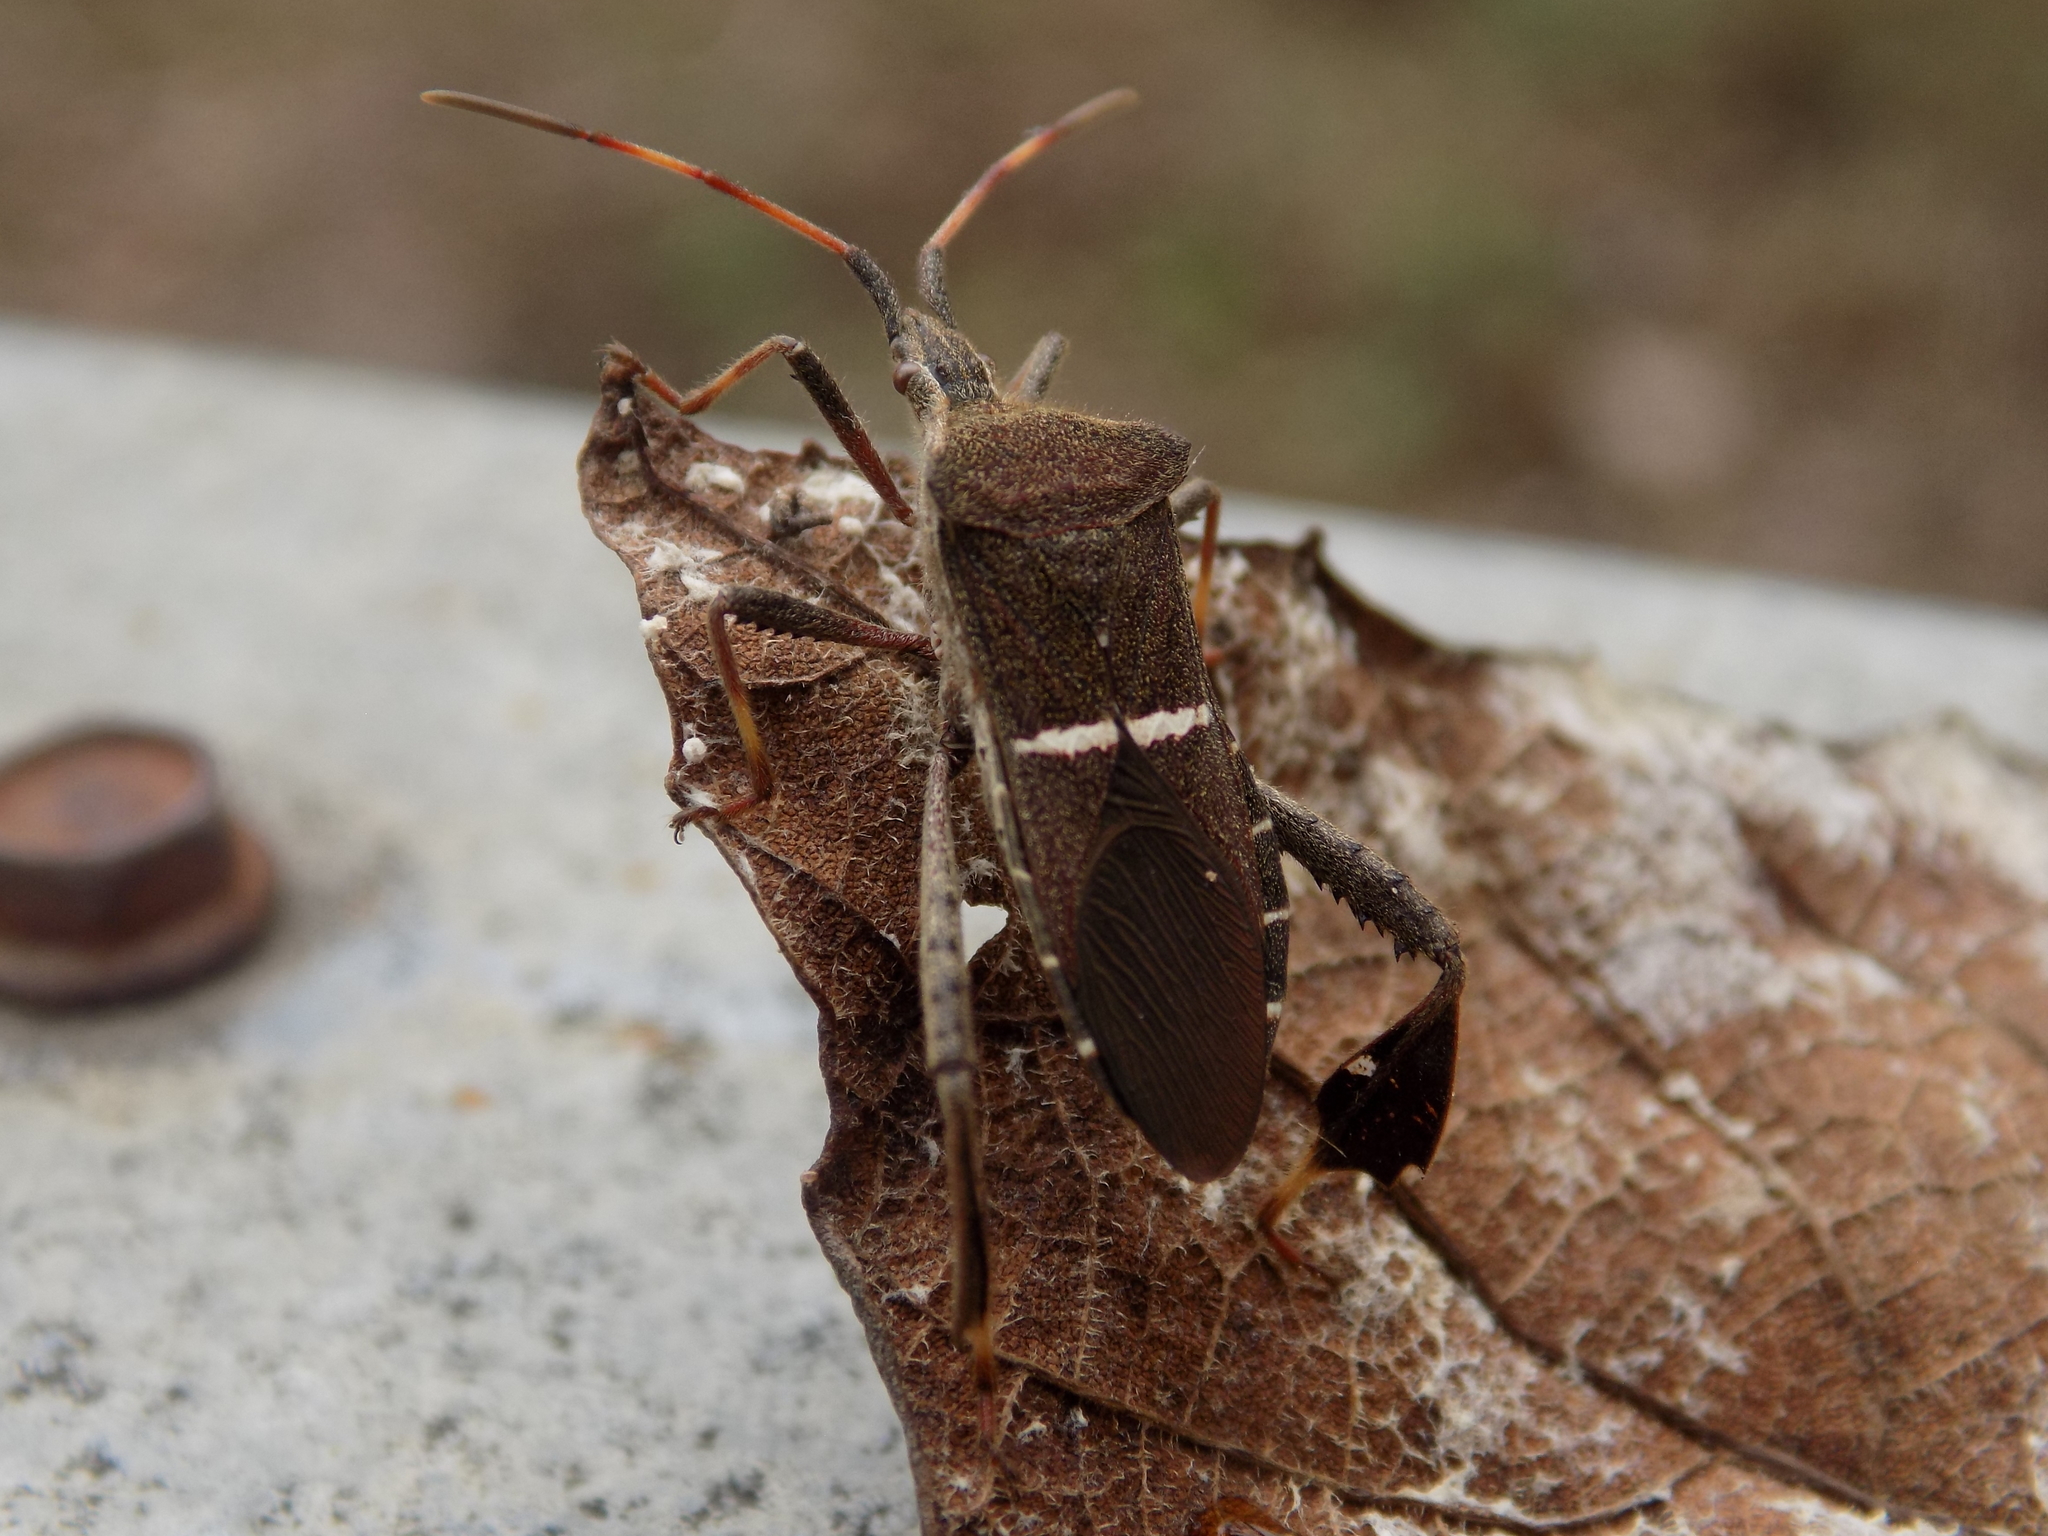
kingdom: Animalia
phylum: Arthropoda
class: Insecta
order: Hemiptera
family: Coreidae
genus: Leptoglossus
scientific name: Leptoglossus phyllopus
